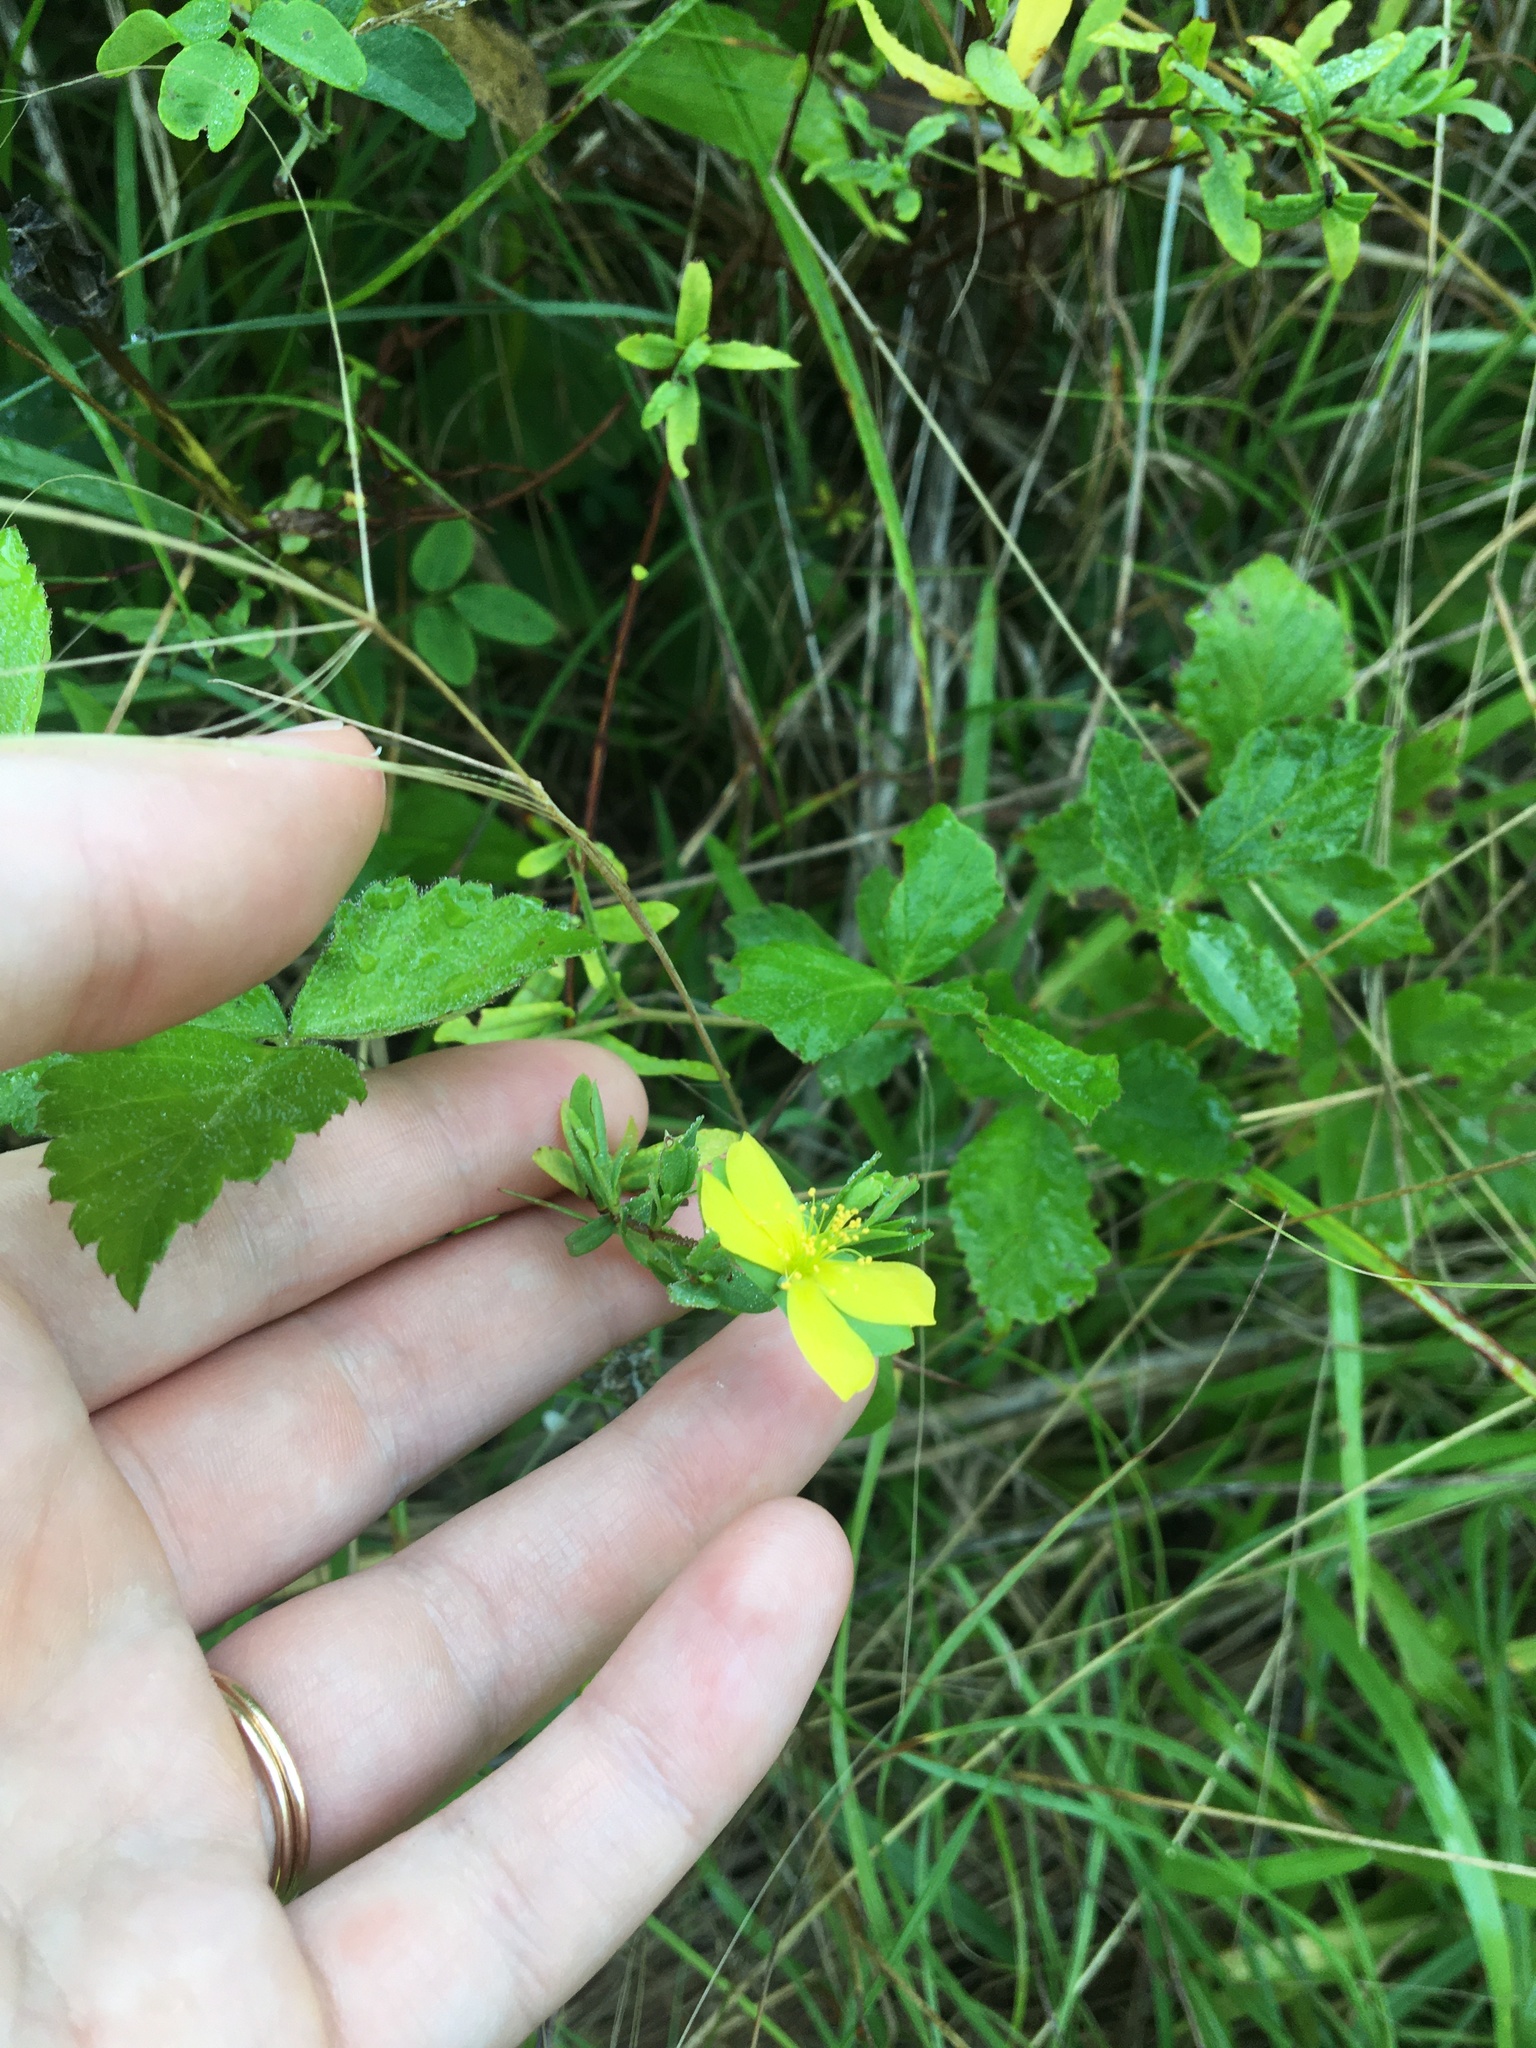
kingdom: Plantae
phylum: Tracheophyta
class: Magnoliopsida
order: Malpighiales
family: Hypericaceae
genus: Hypericum
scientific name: Hypericum hypericoides
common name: St. andrew's cross
